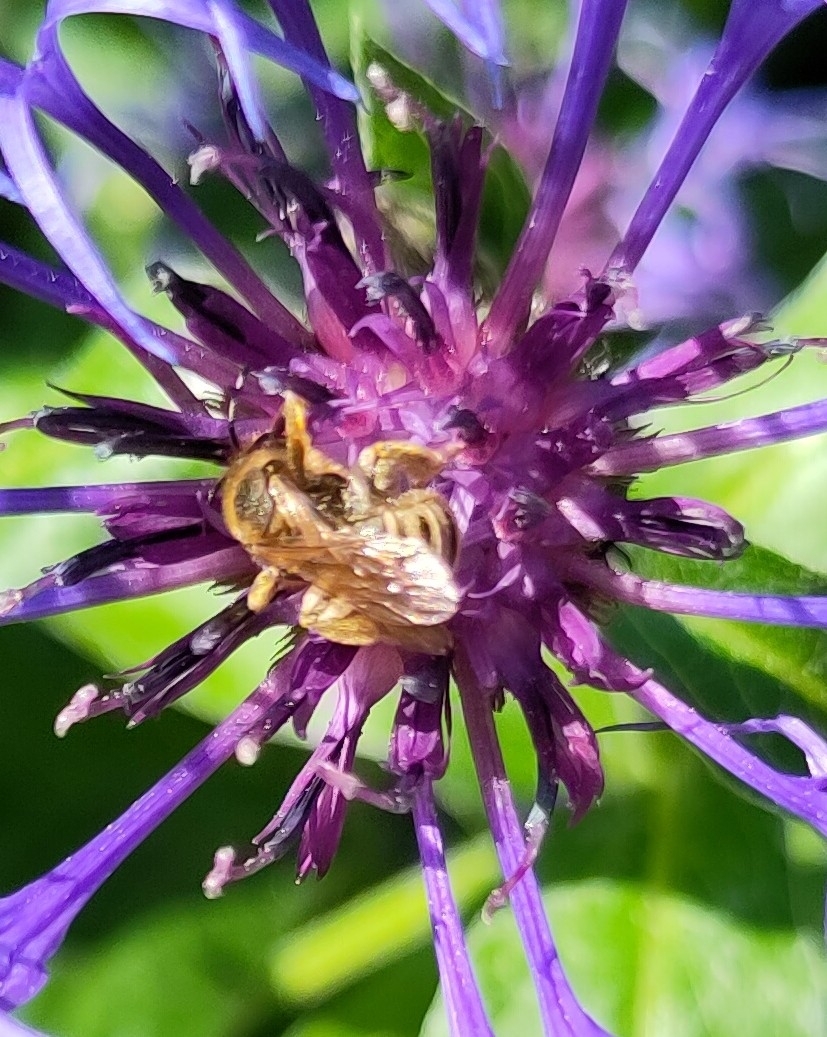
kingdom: Animalia
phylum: Arthropoda
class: Insecta
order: Hymenoptera
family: Halictidae
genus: Halictus
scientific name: Halictus scabiosae
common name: Great banded furrow bee
